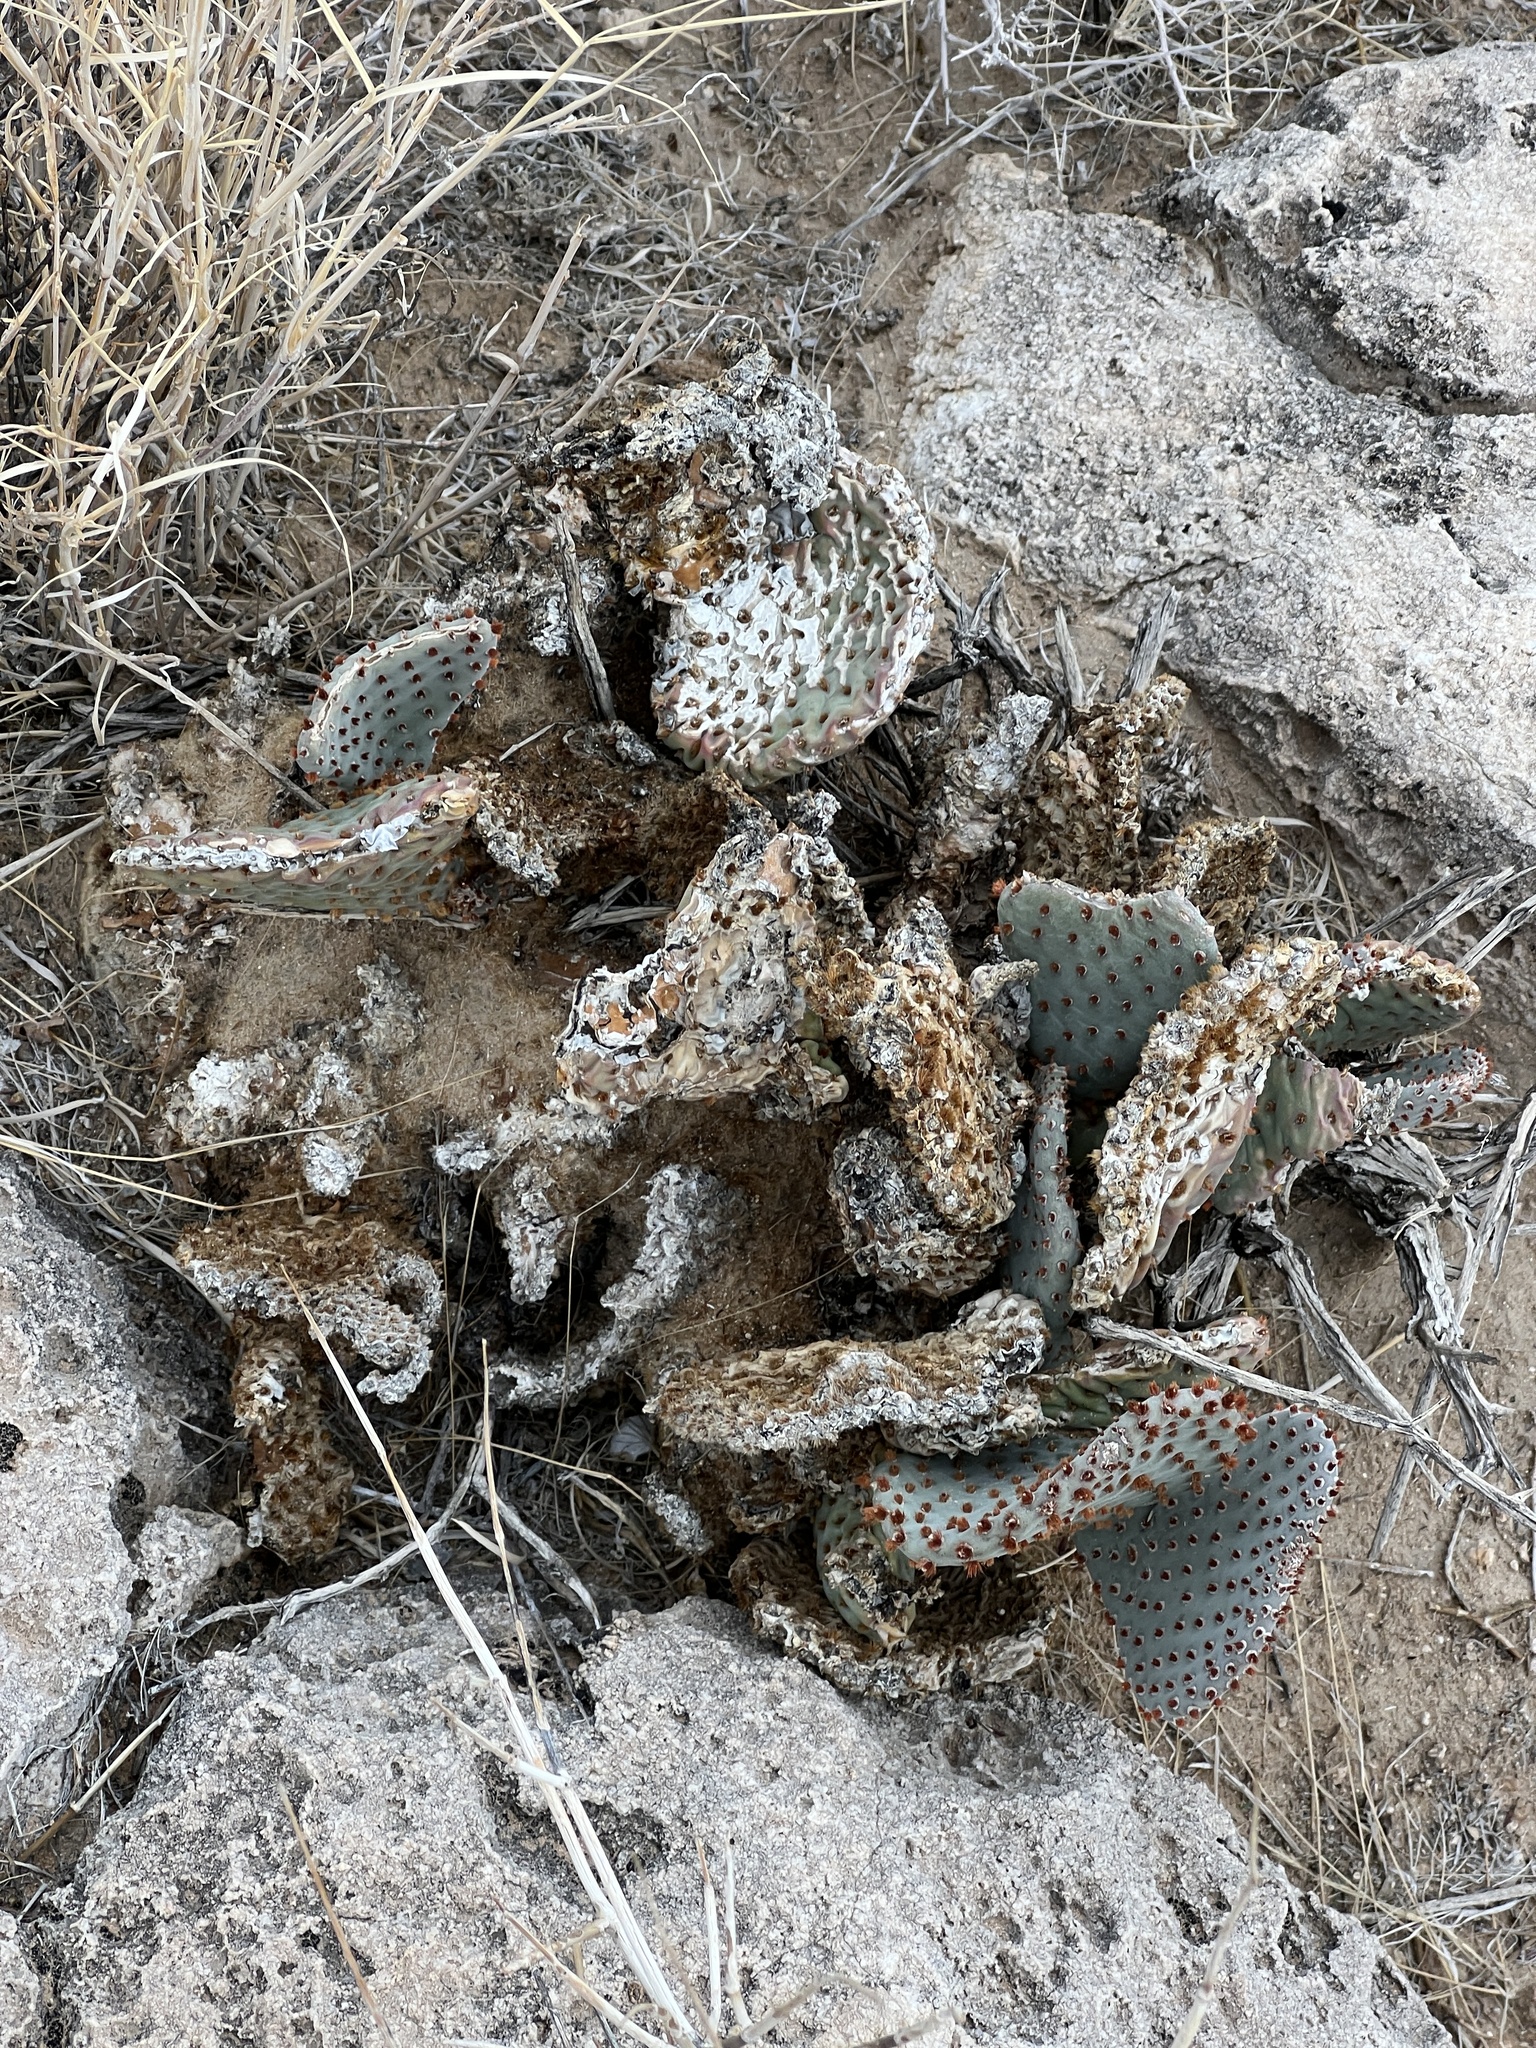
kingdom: Plantae
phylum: Tracheophyta
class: Magnoliopsida
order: Caryophyllales
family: Cactaceae
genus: Opuntia
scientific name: Opuntia basilaris
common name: Beavertail prickly-pear
